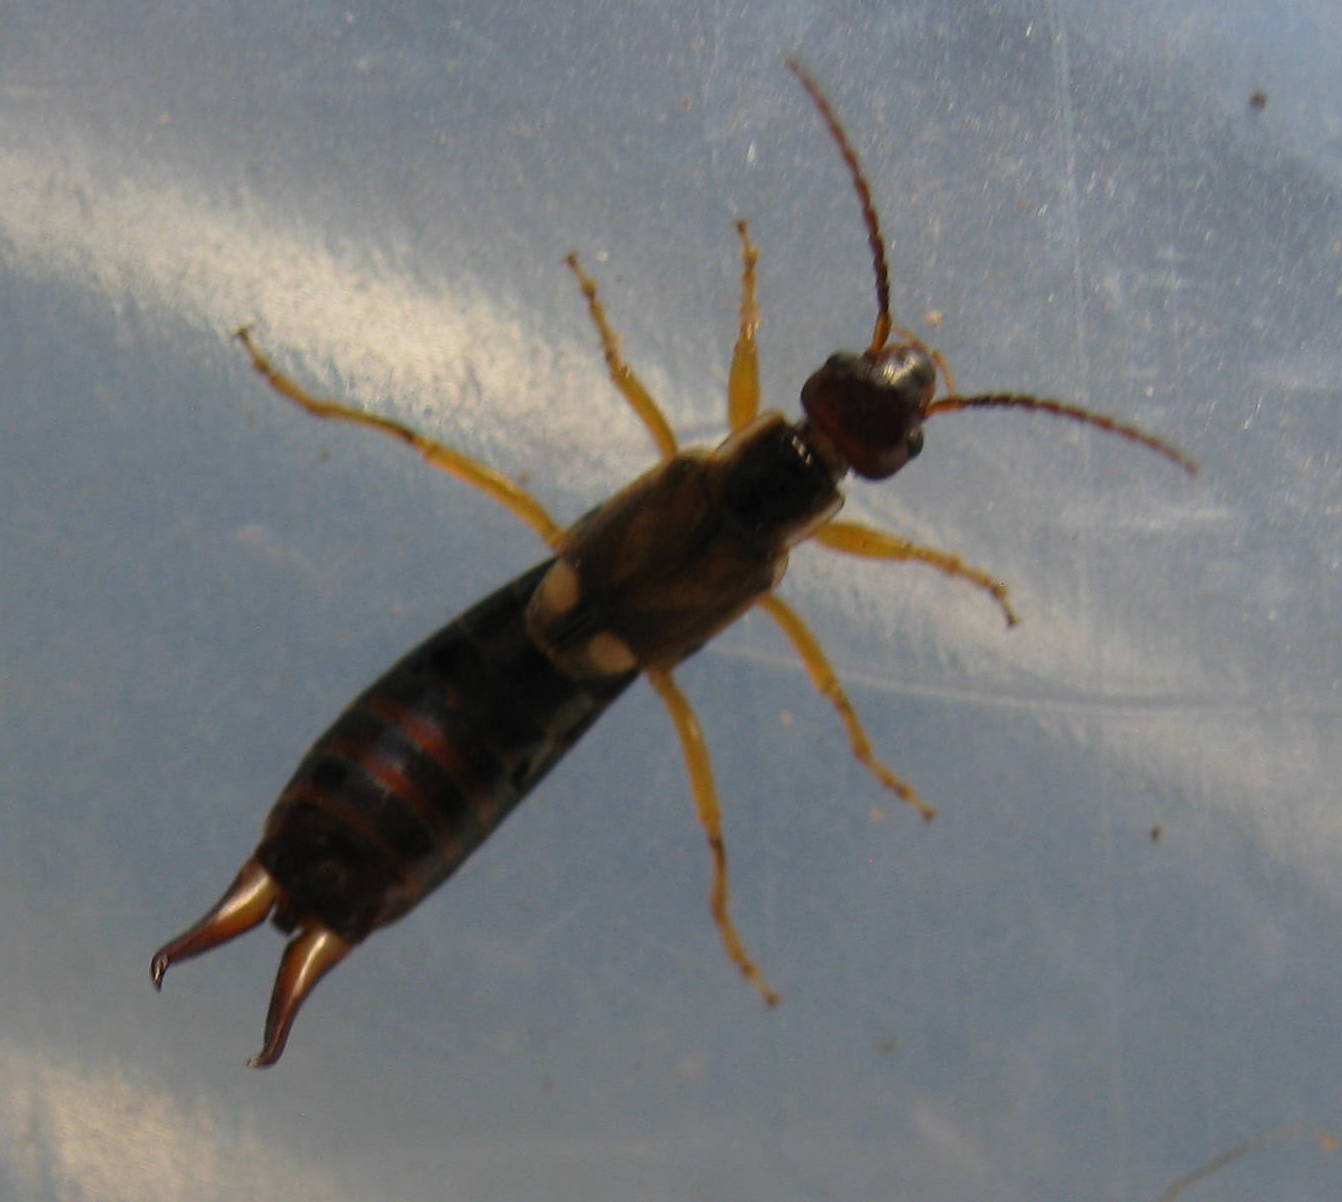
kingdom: Animalia
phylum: Arthropoda
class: Insecta
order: Dermaptera
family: Forficulidae
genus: Forficula
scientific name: Forficula
